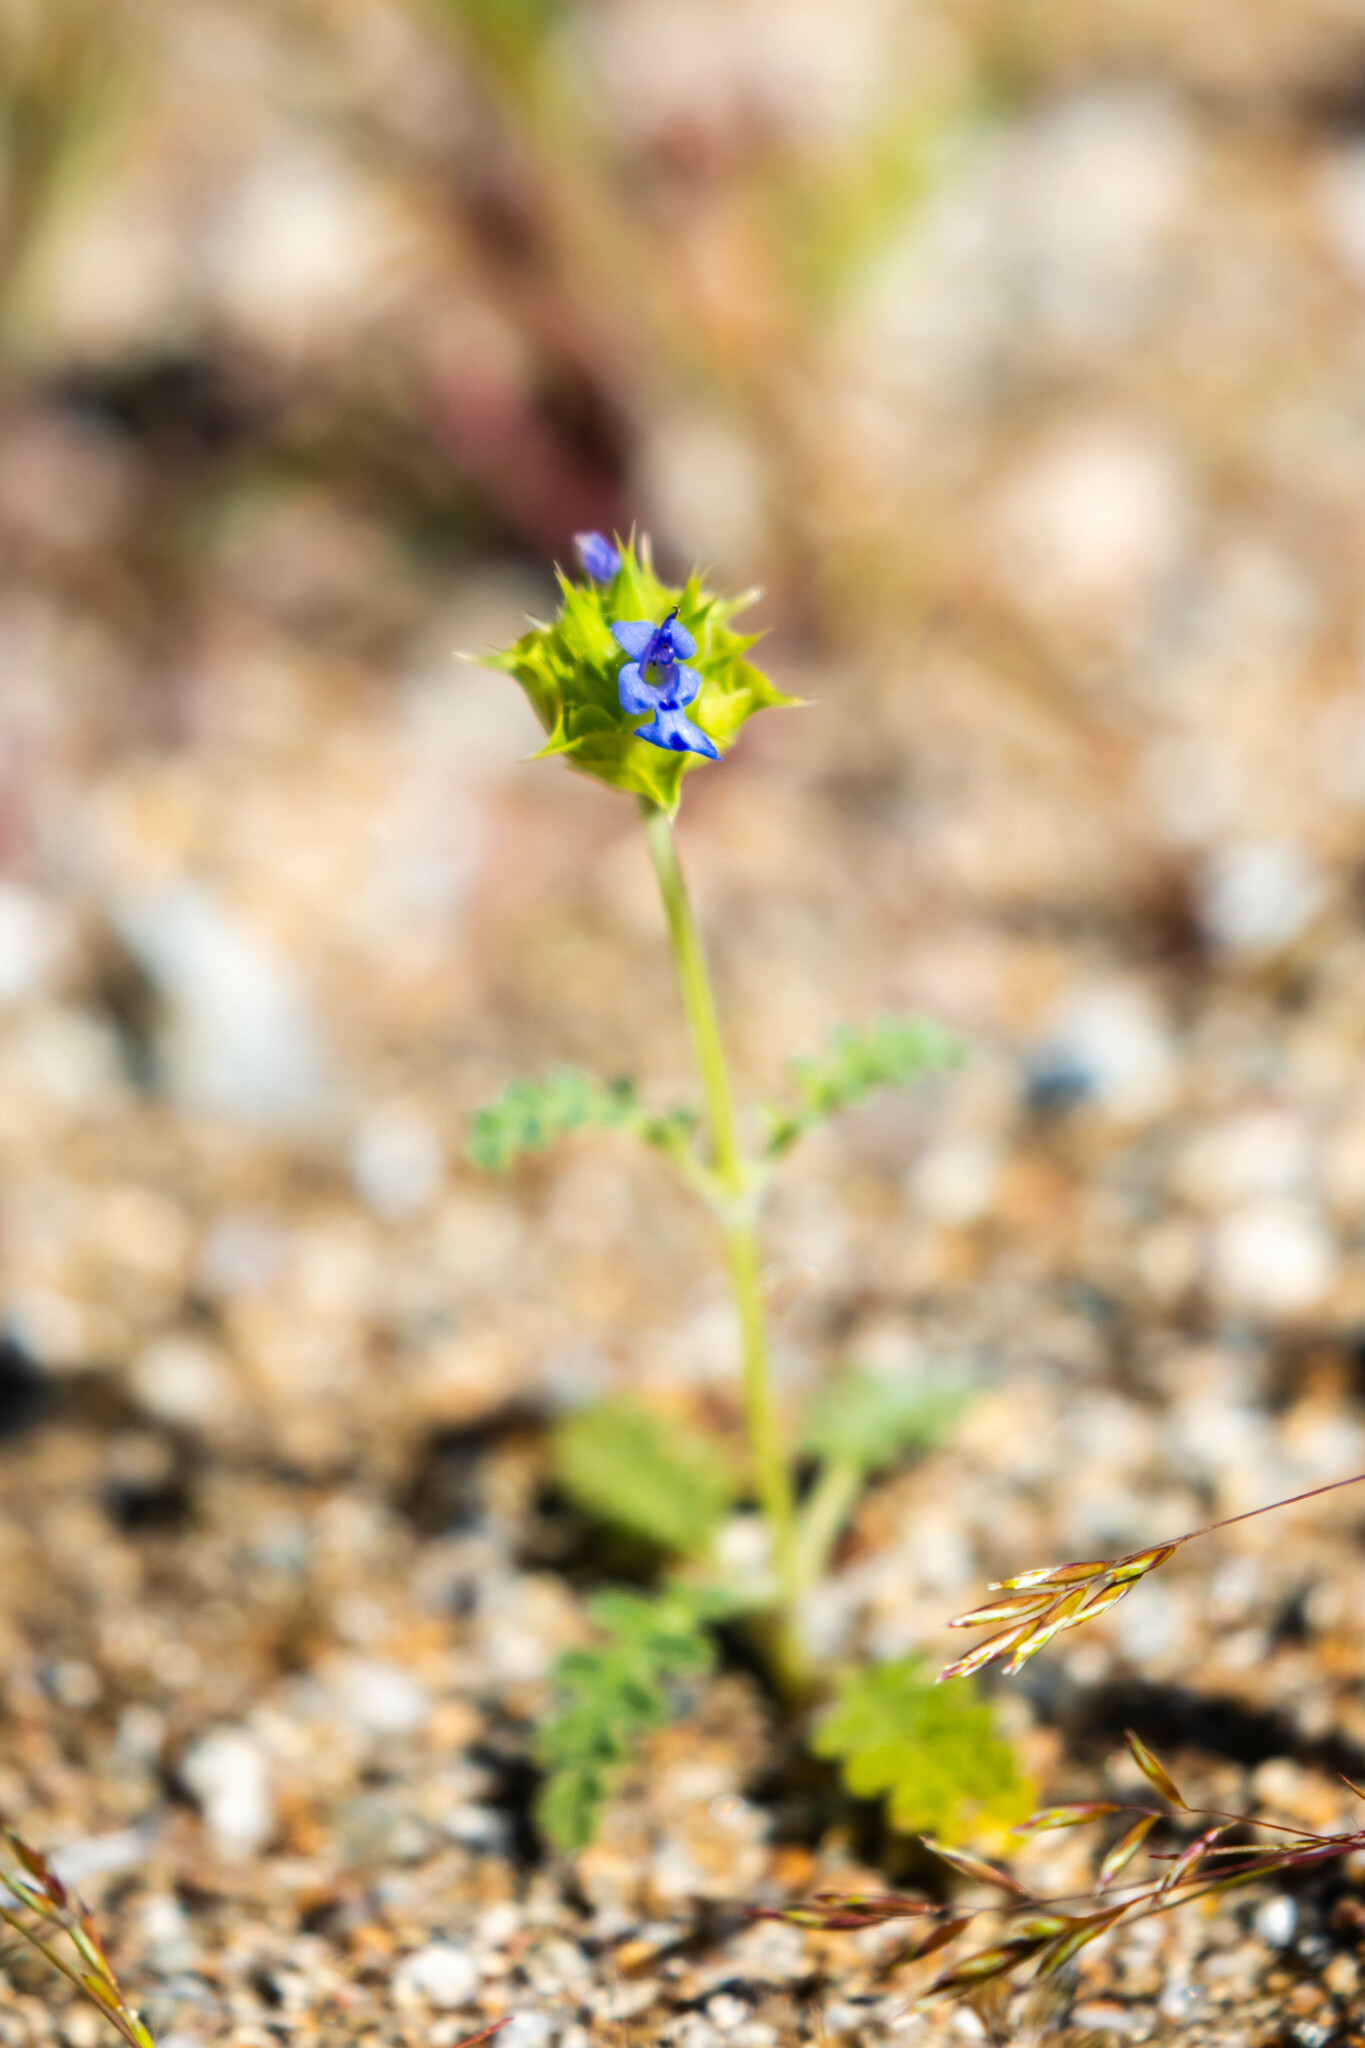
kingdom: Plantae
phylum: Tracheophyta
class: Magnoliopsida
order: Lamiales
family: Lamiaceae
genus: Salvia
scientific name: Salvia columbariae
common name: Chia
